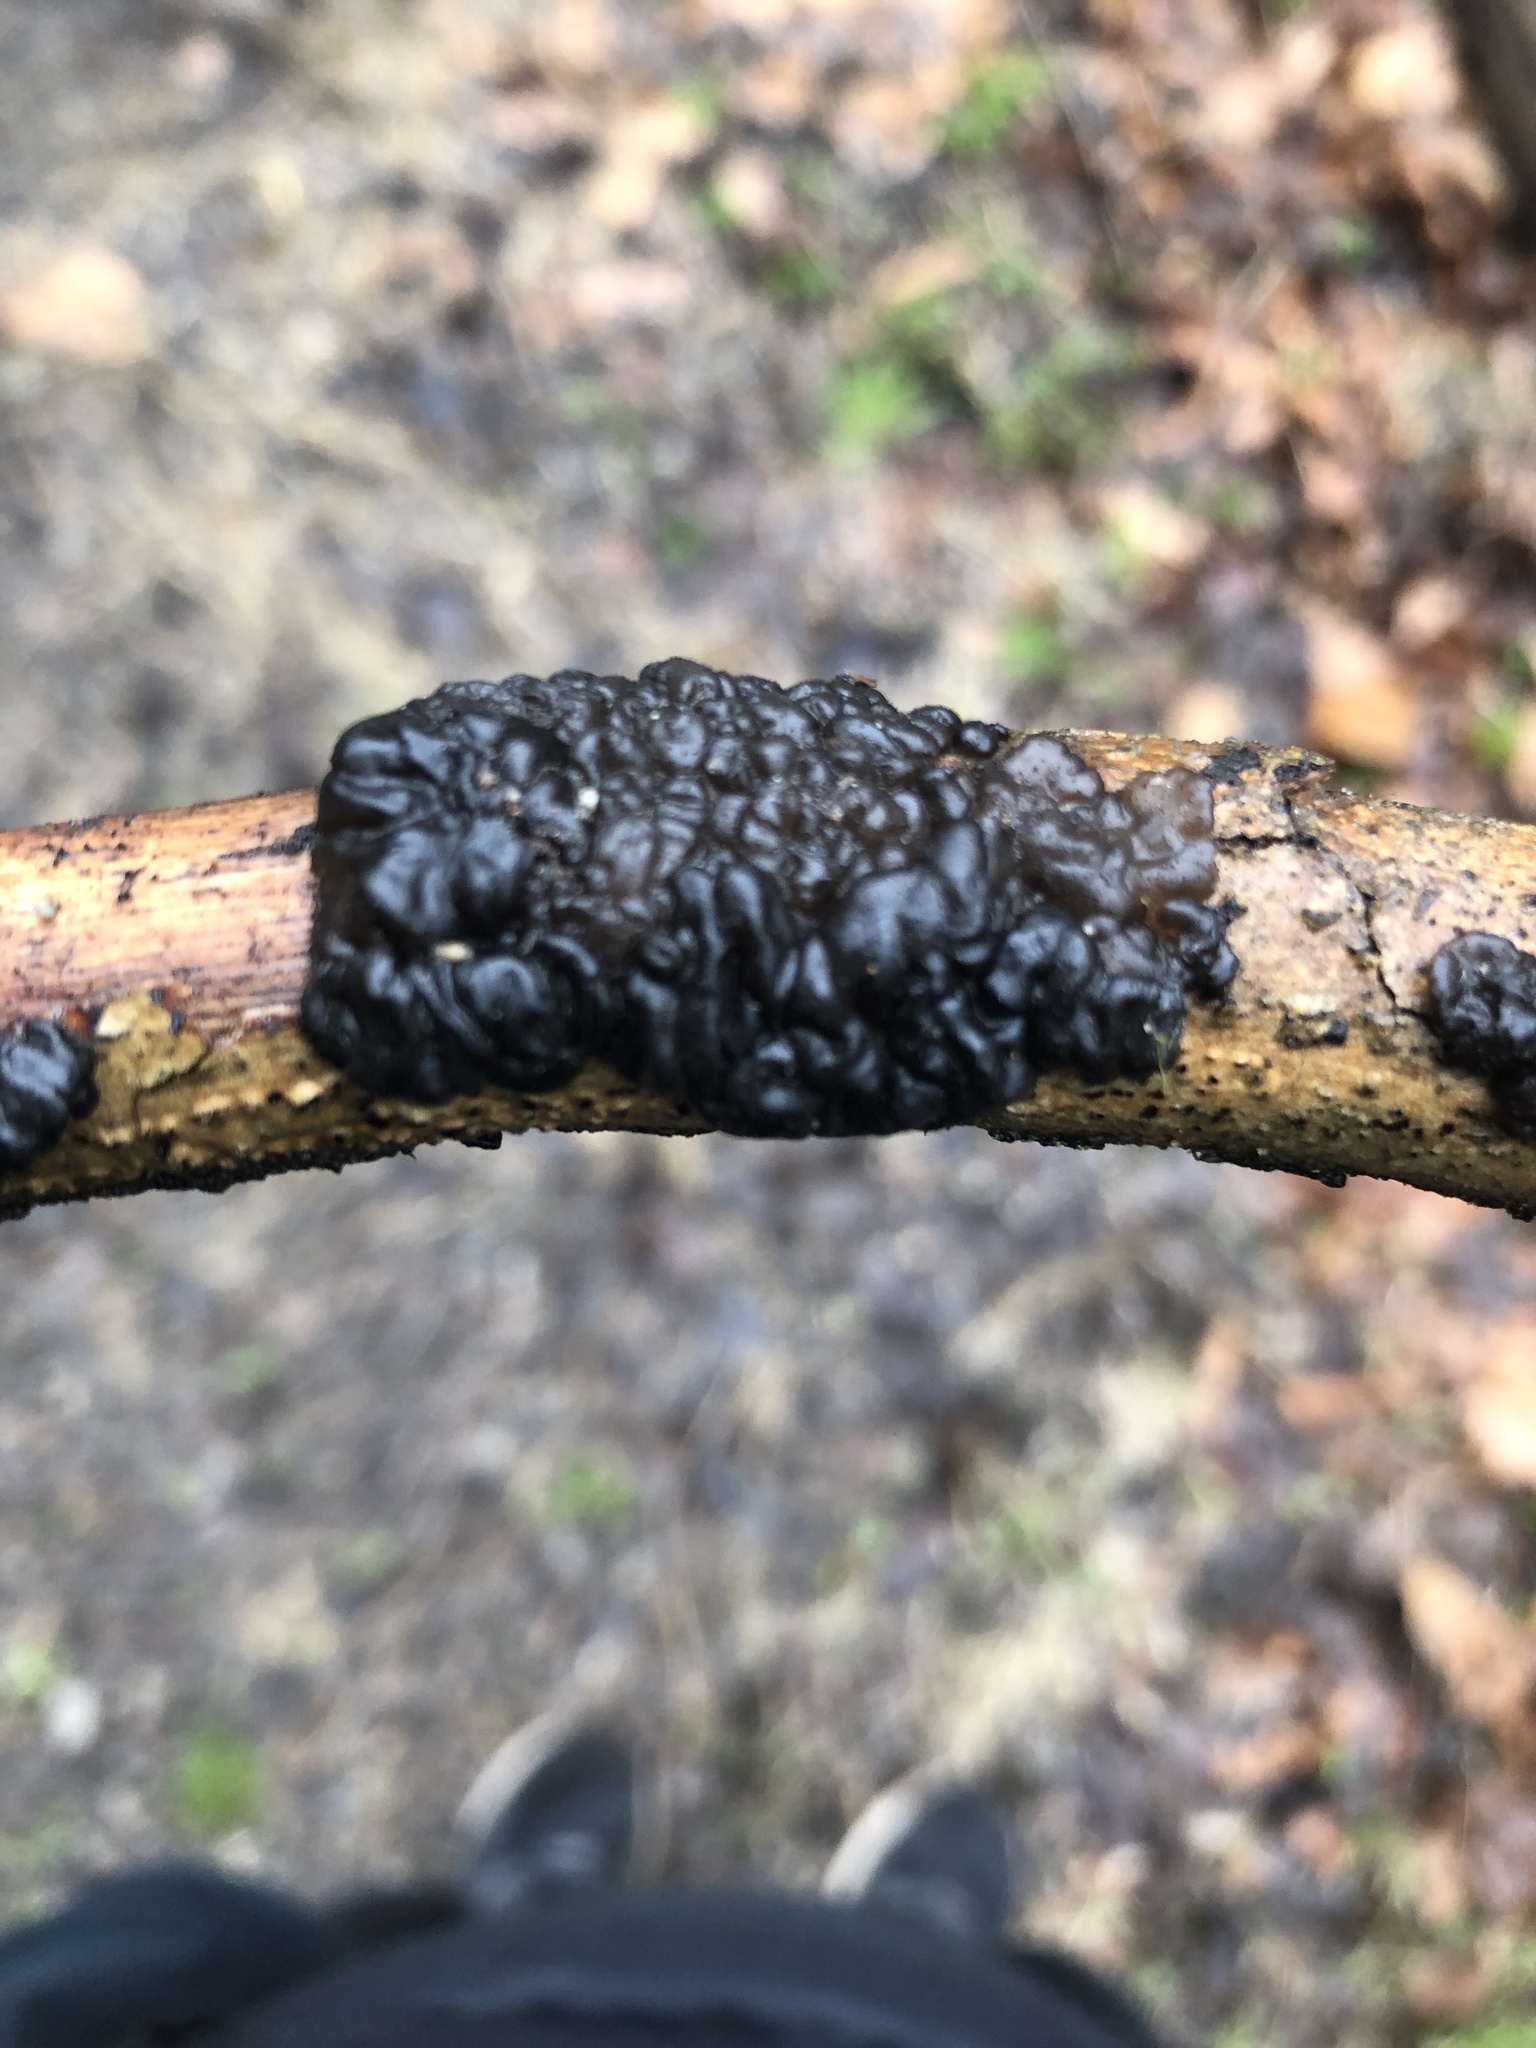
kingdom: Fungi
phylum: Basidiomycota
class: Agaricomycetes
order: Auriculariales
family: Auriculariaceae
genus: Exidia
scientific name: Exidia nigricans
